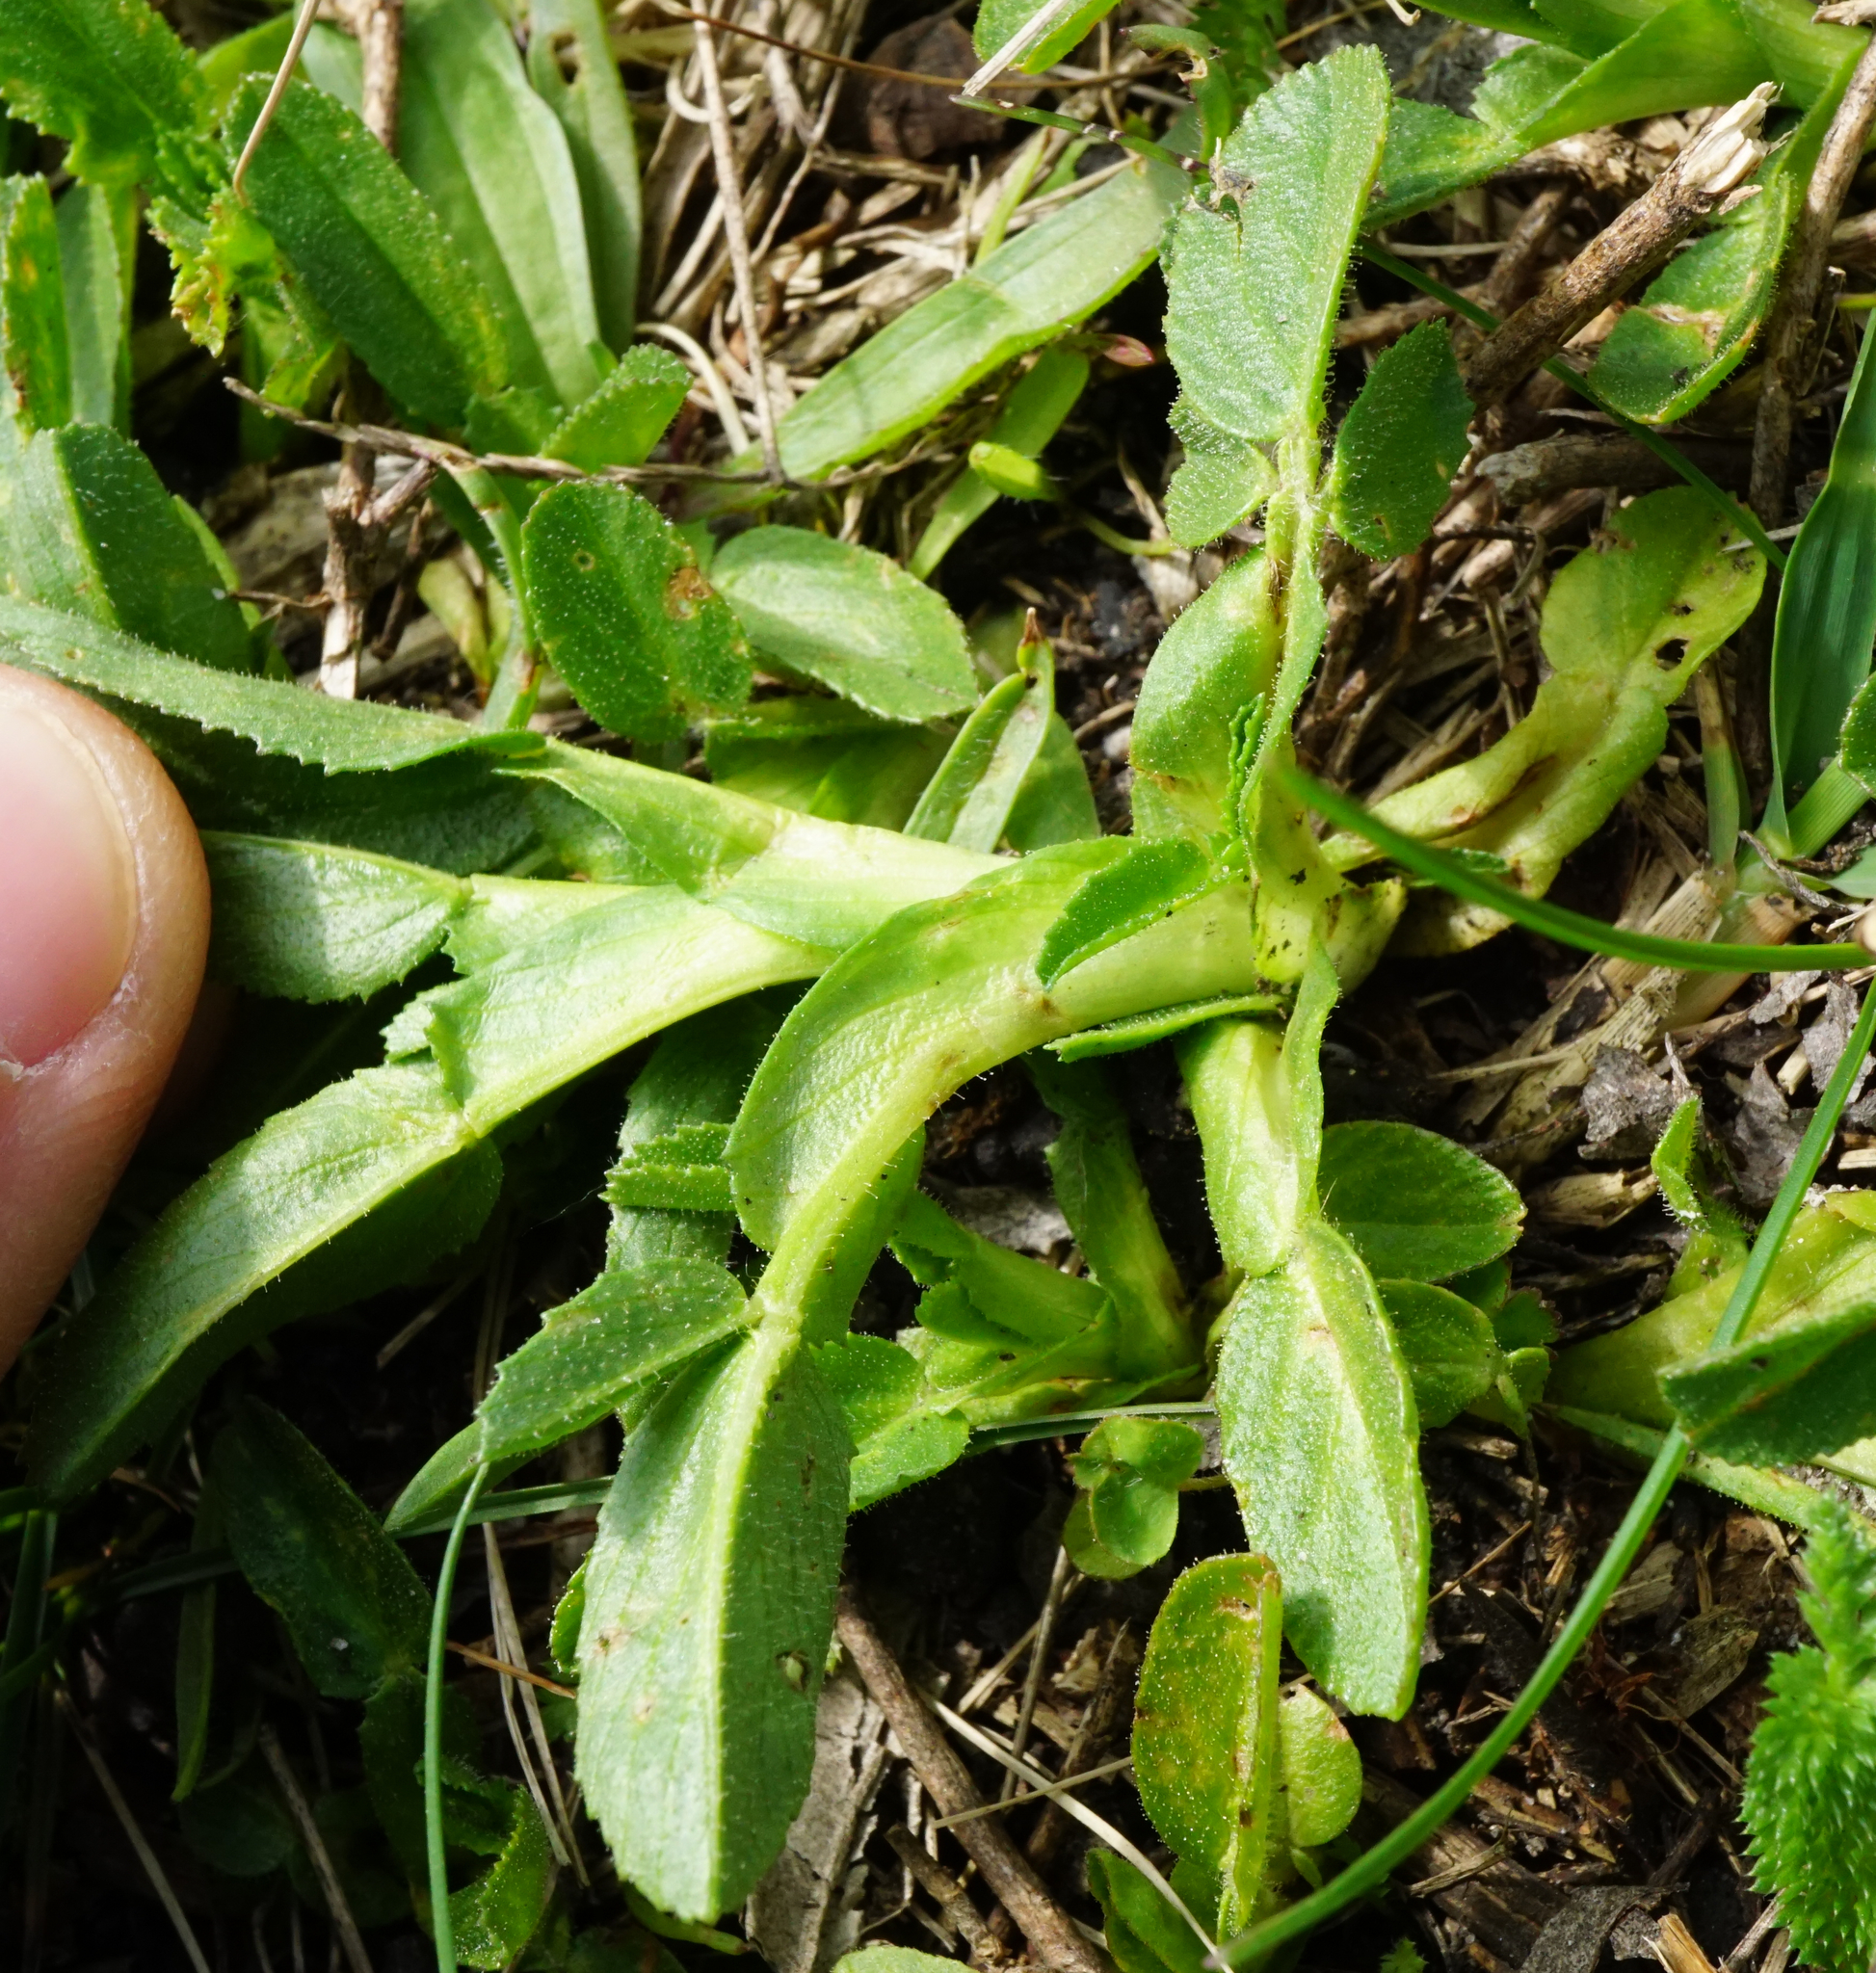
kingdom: Plantae
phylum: Tracheophyta
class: Magnoliopsida
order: Fabales
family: Fabaceae
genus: Ononis
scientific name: Ononis spinosa
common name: Spiny restharrow
